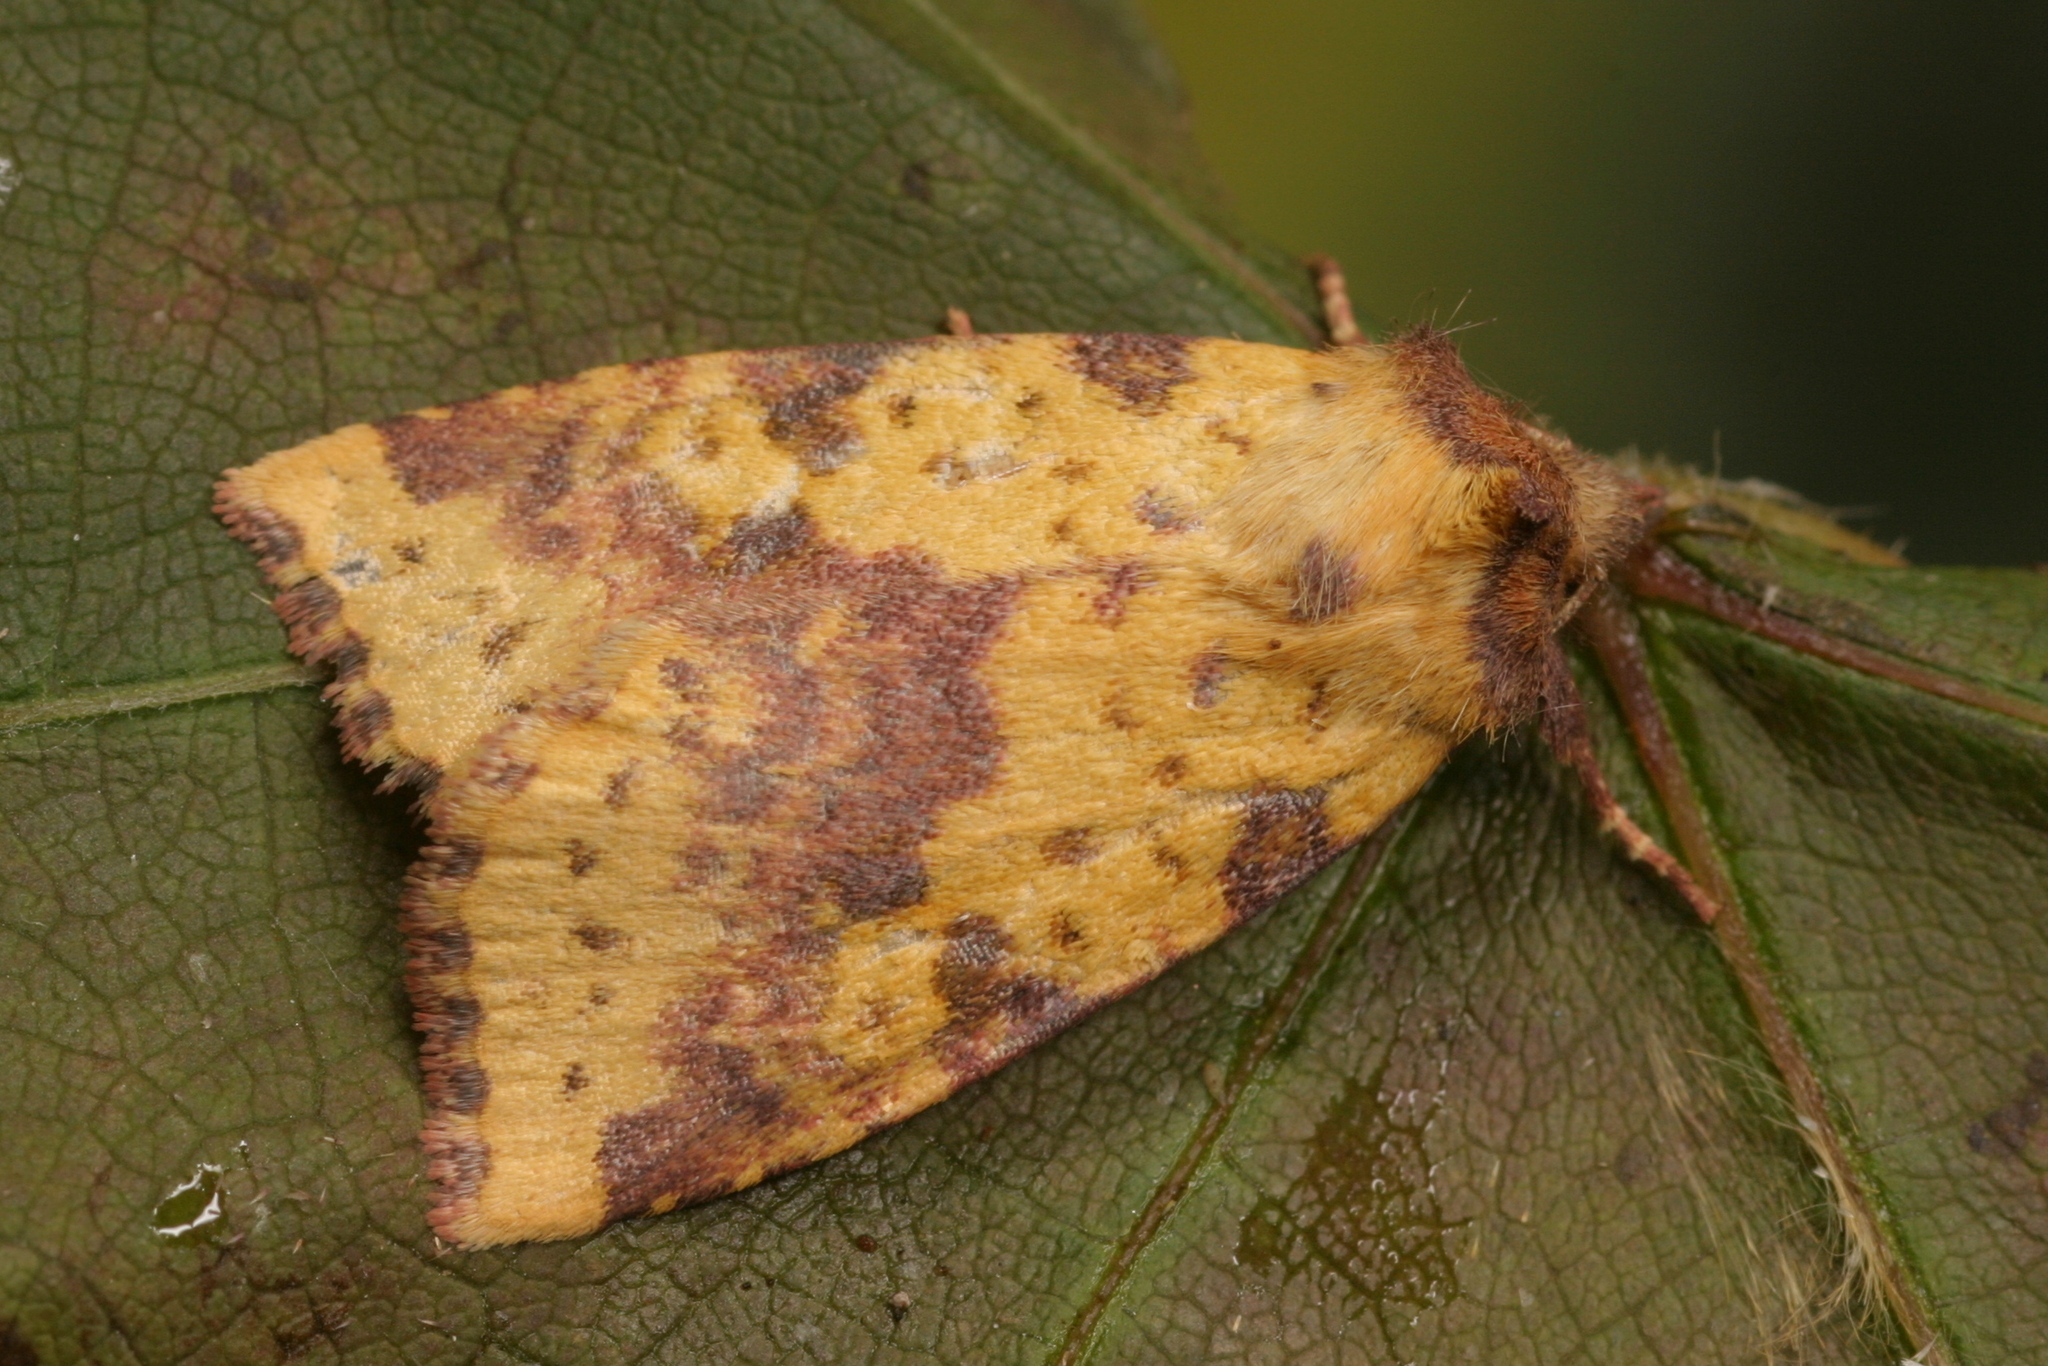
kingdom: Animalia
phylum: Arthropoda
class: Insecta
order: Lepidoptera
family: Noctuidae
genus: Xanthia
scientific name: Xanthia togata
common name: Pink-barred sallow
